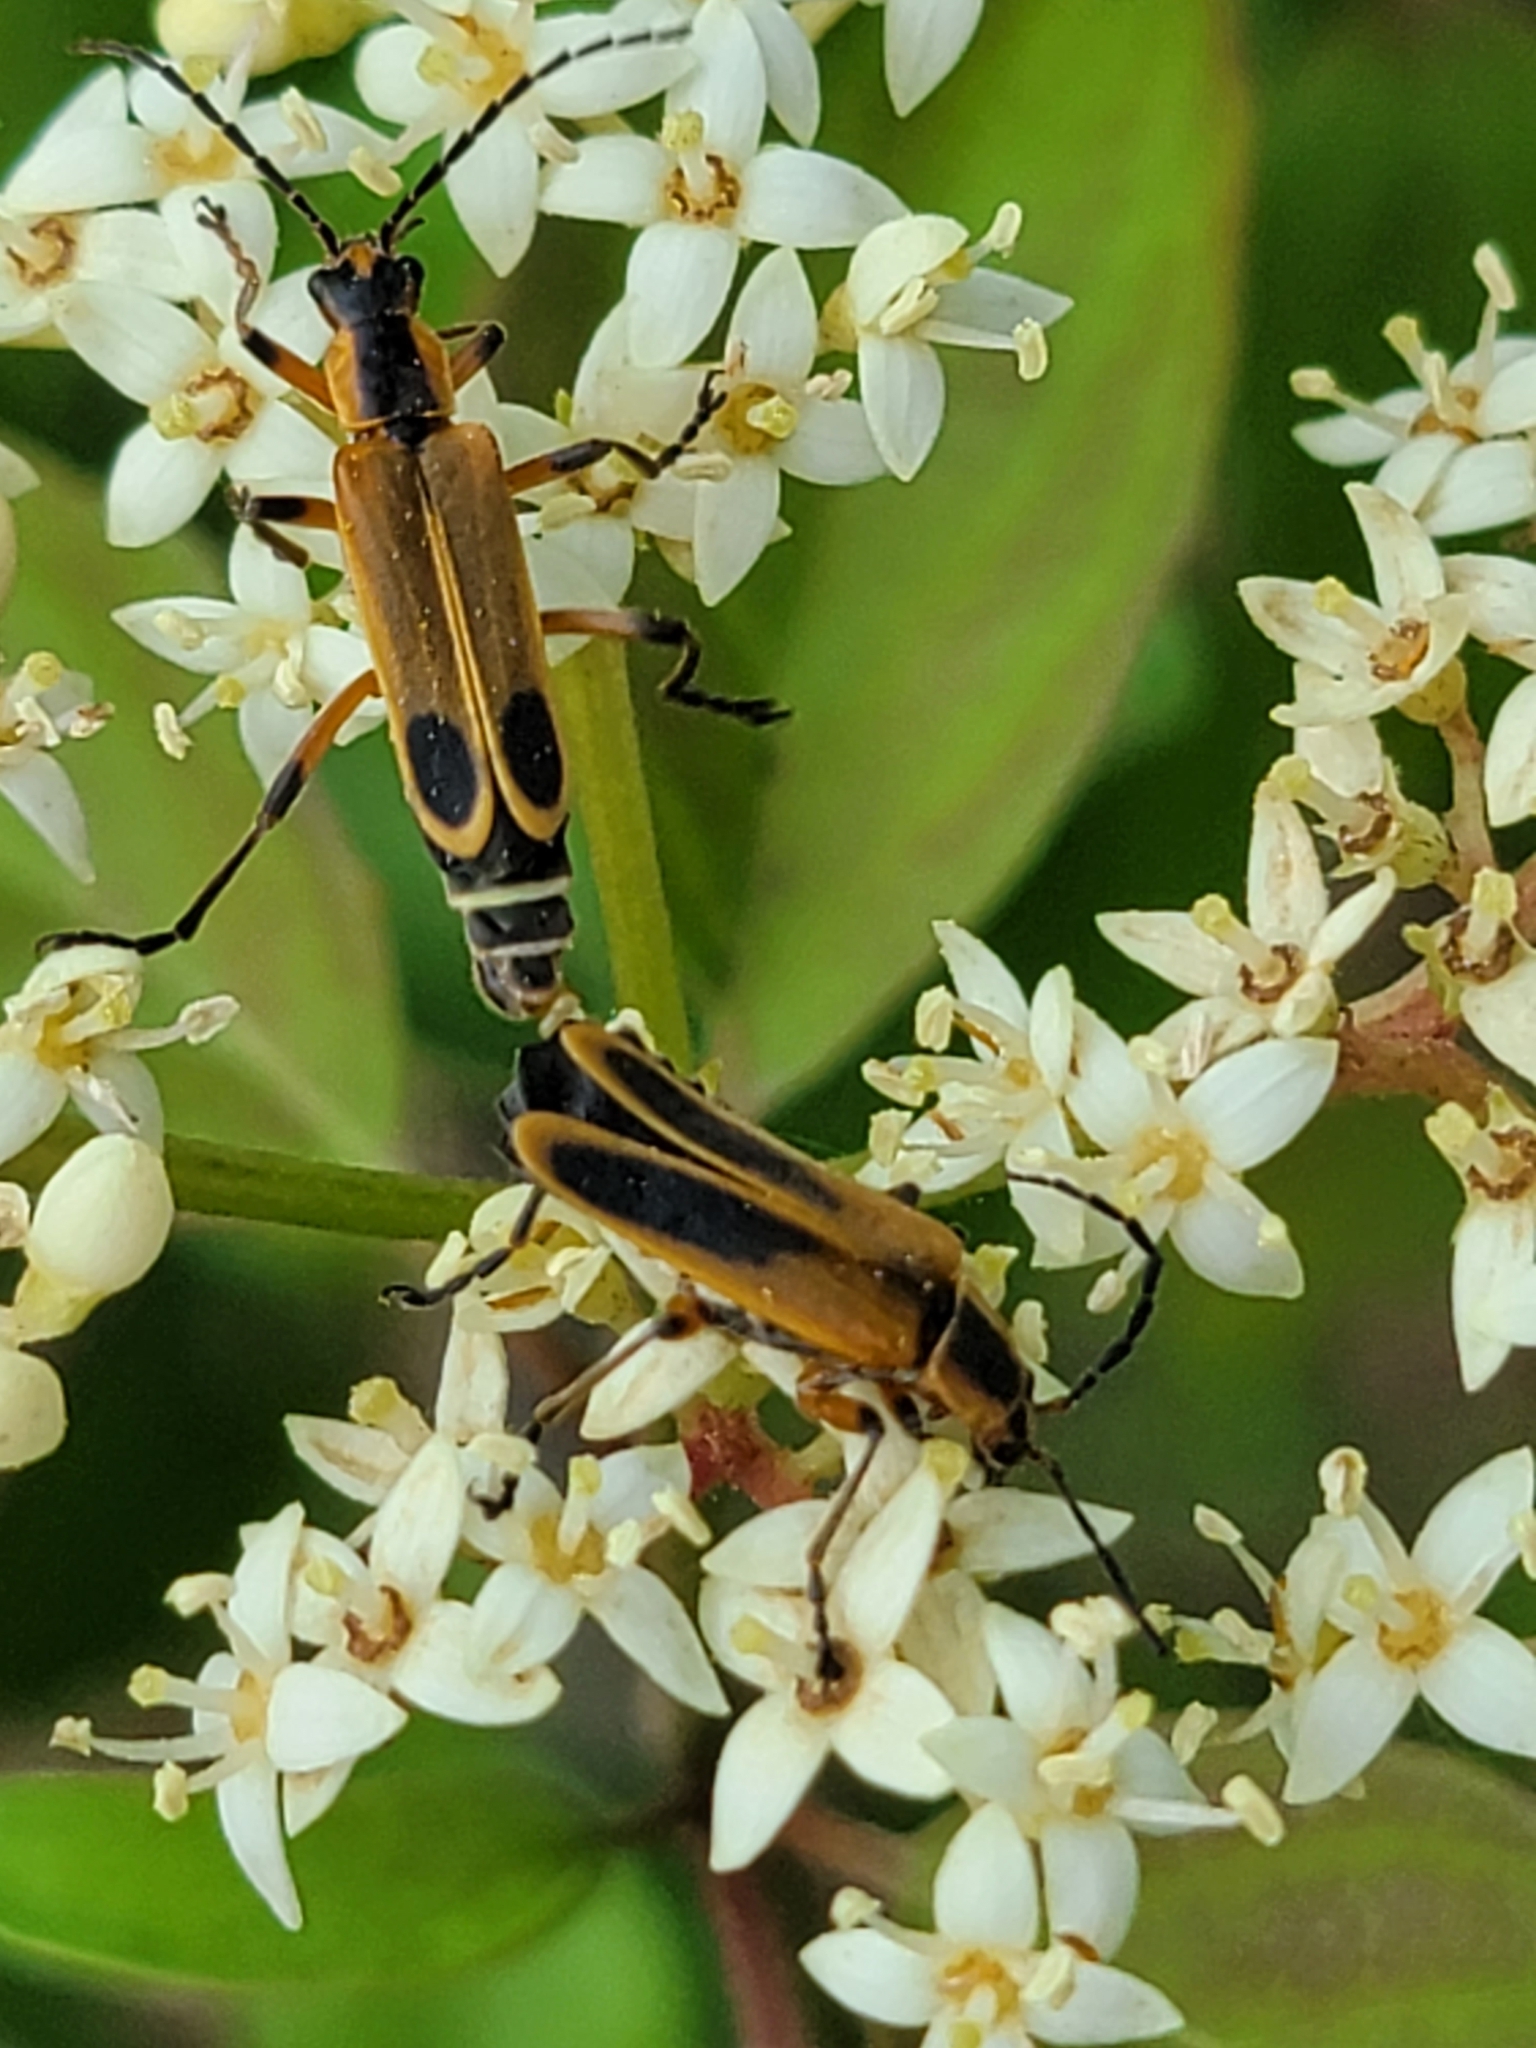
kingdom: Animalia
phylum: Arthropoda
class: Insecta
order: Coleoptera
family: Cantharidae
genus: Chauliognathus
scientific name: Chauliognathus marginatus
